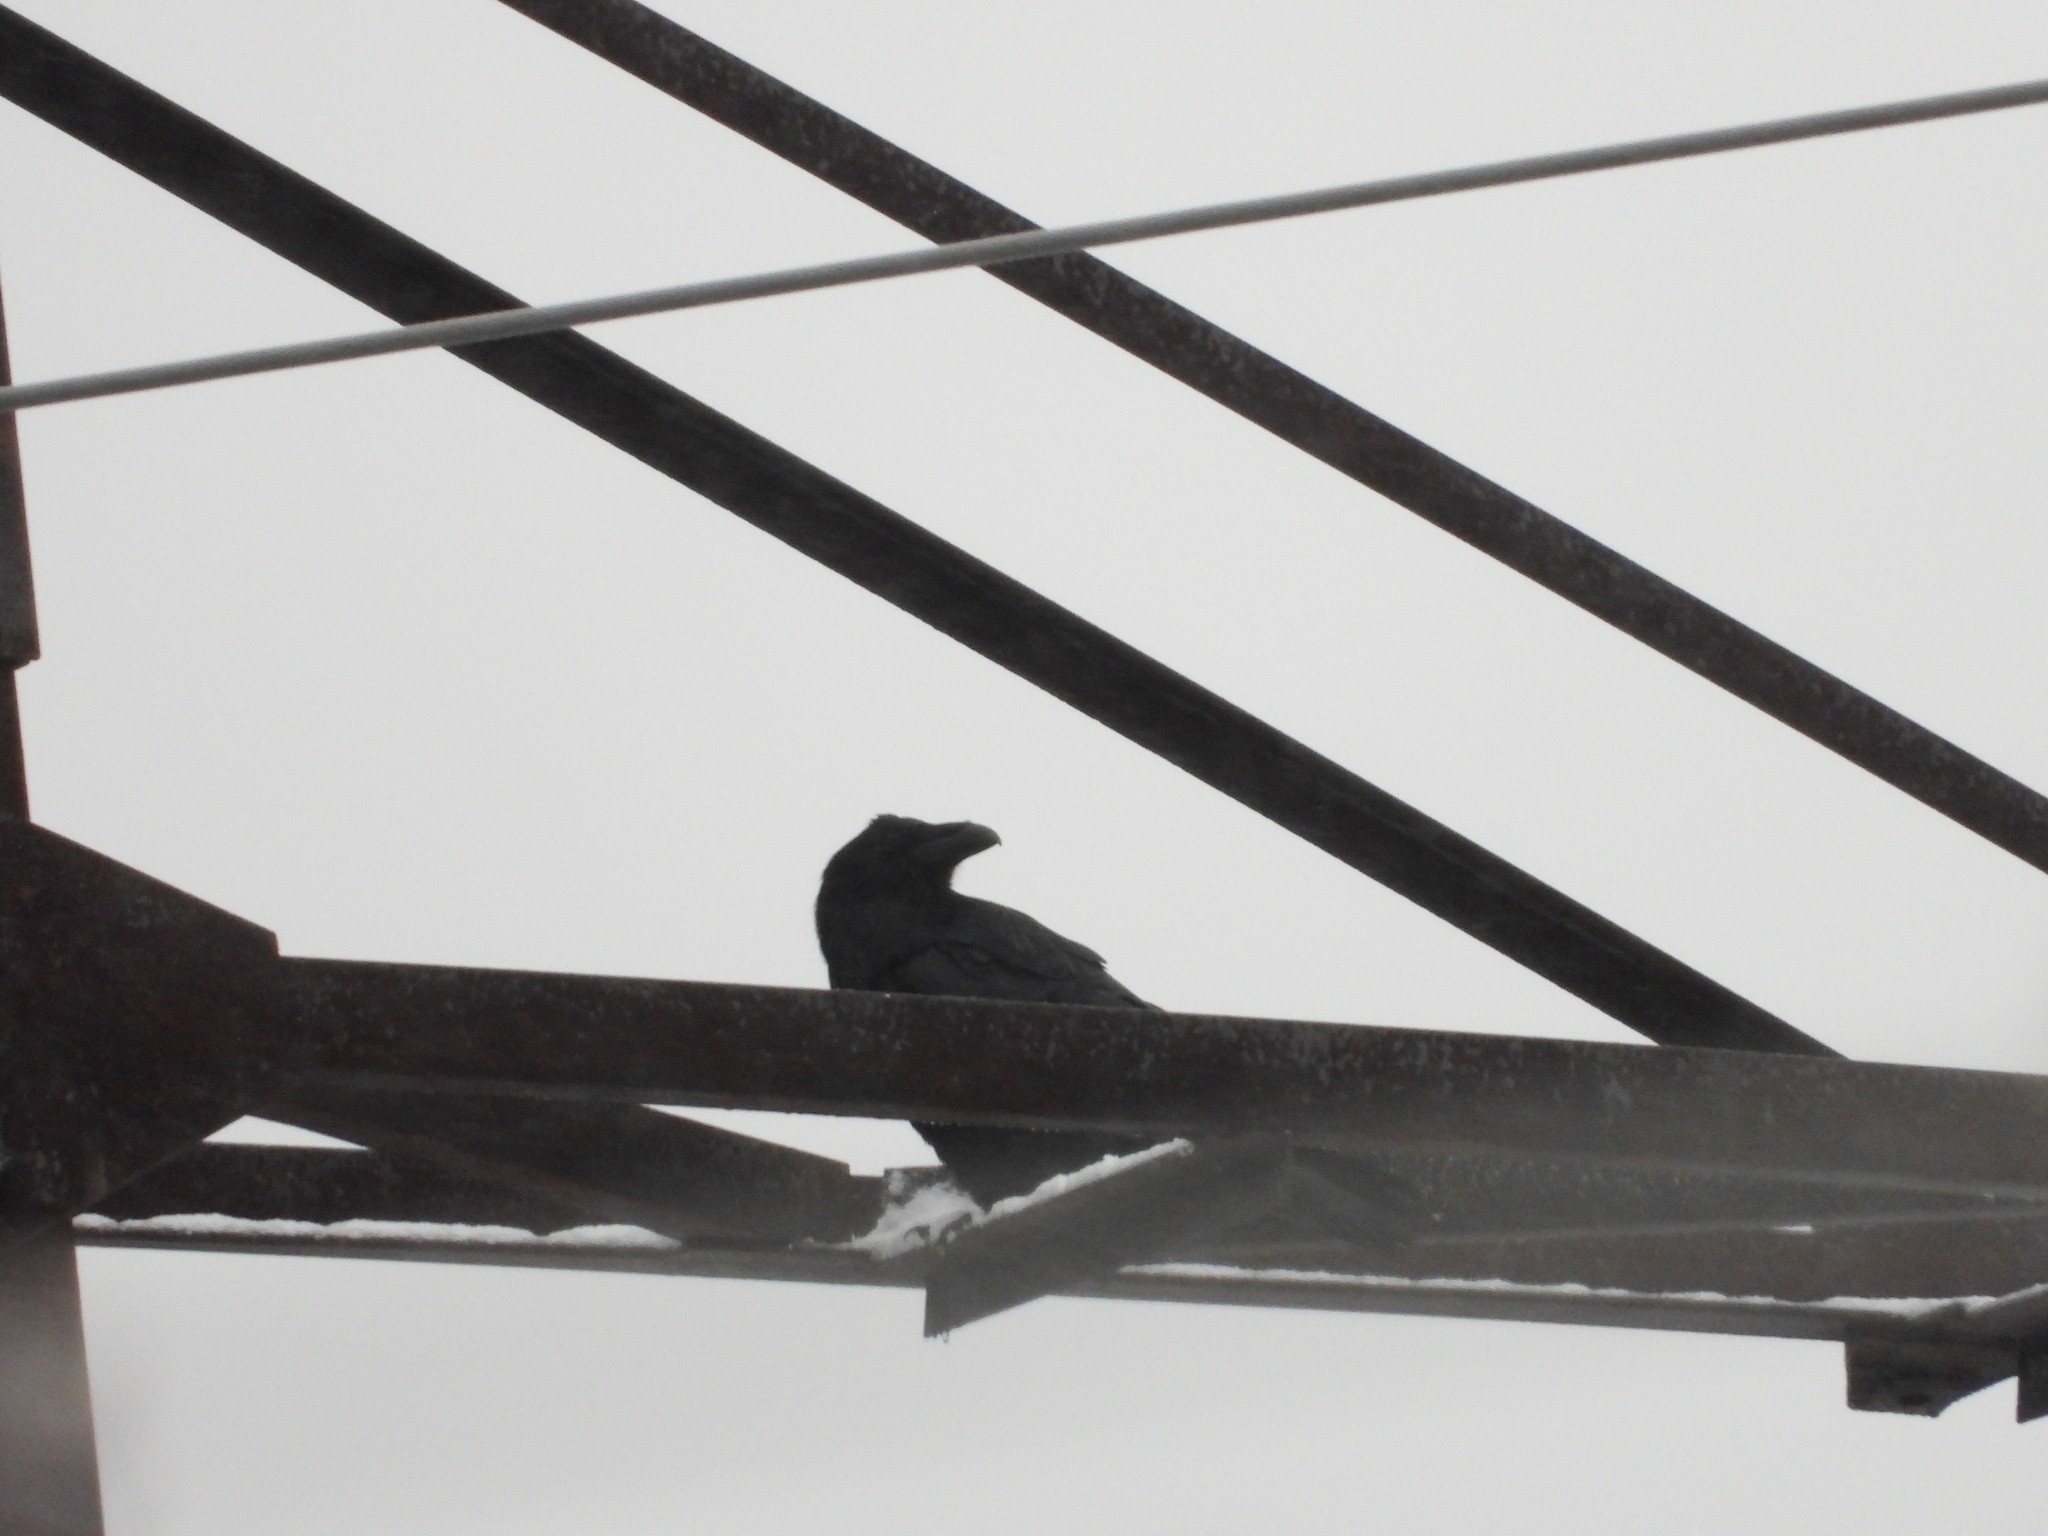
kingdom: Animalia
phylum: Chordata
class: Aves
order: Passeriformes
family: Corvidae
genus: Corvus
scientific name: Corvus corax
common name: Common raven
